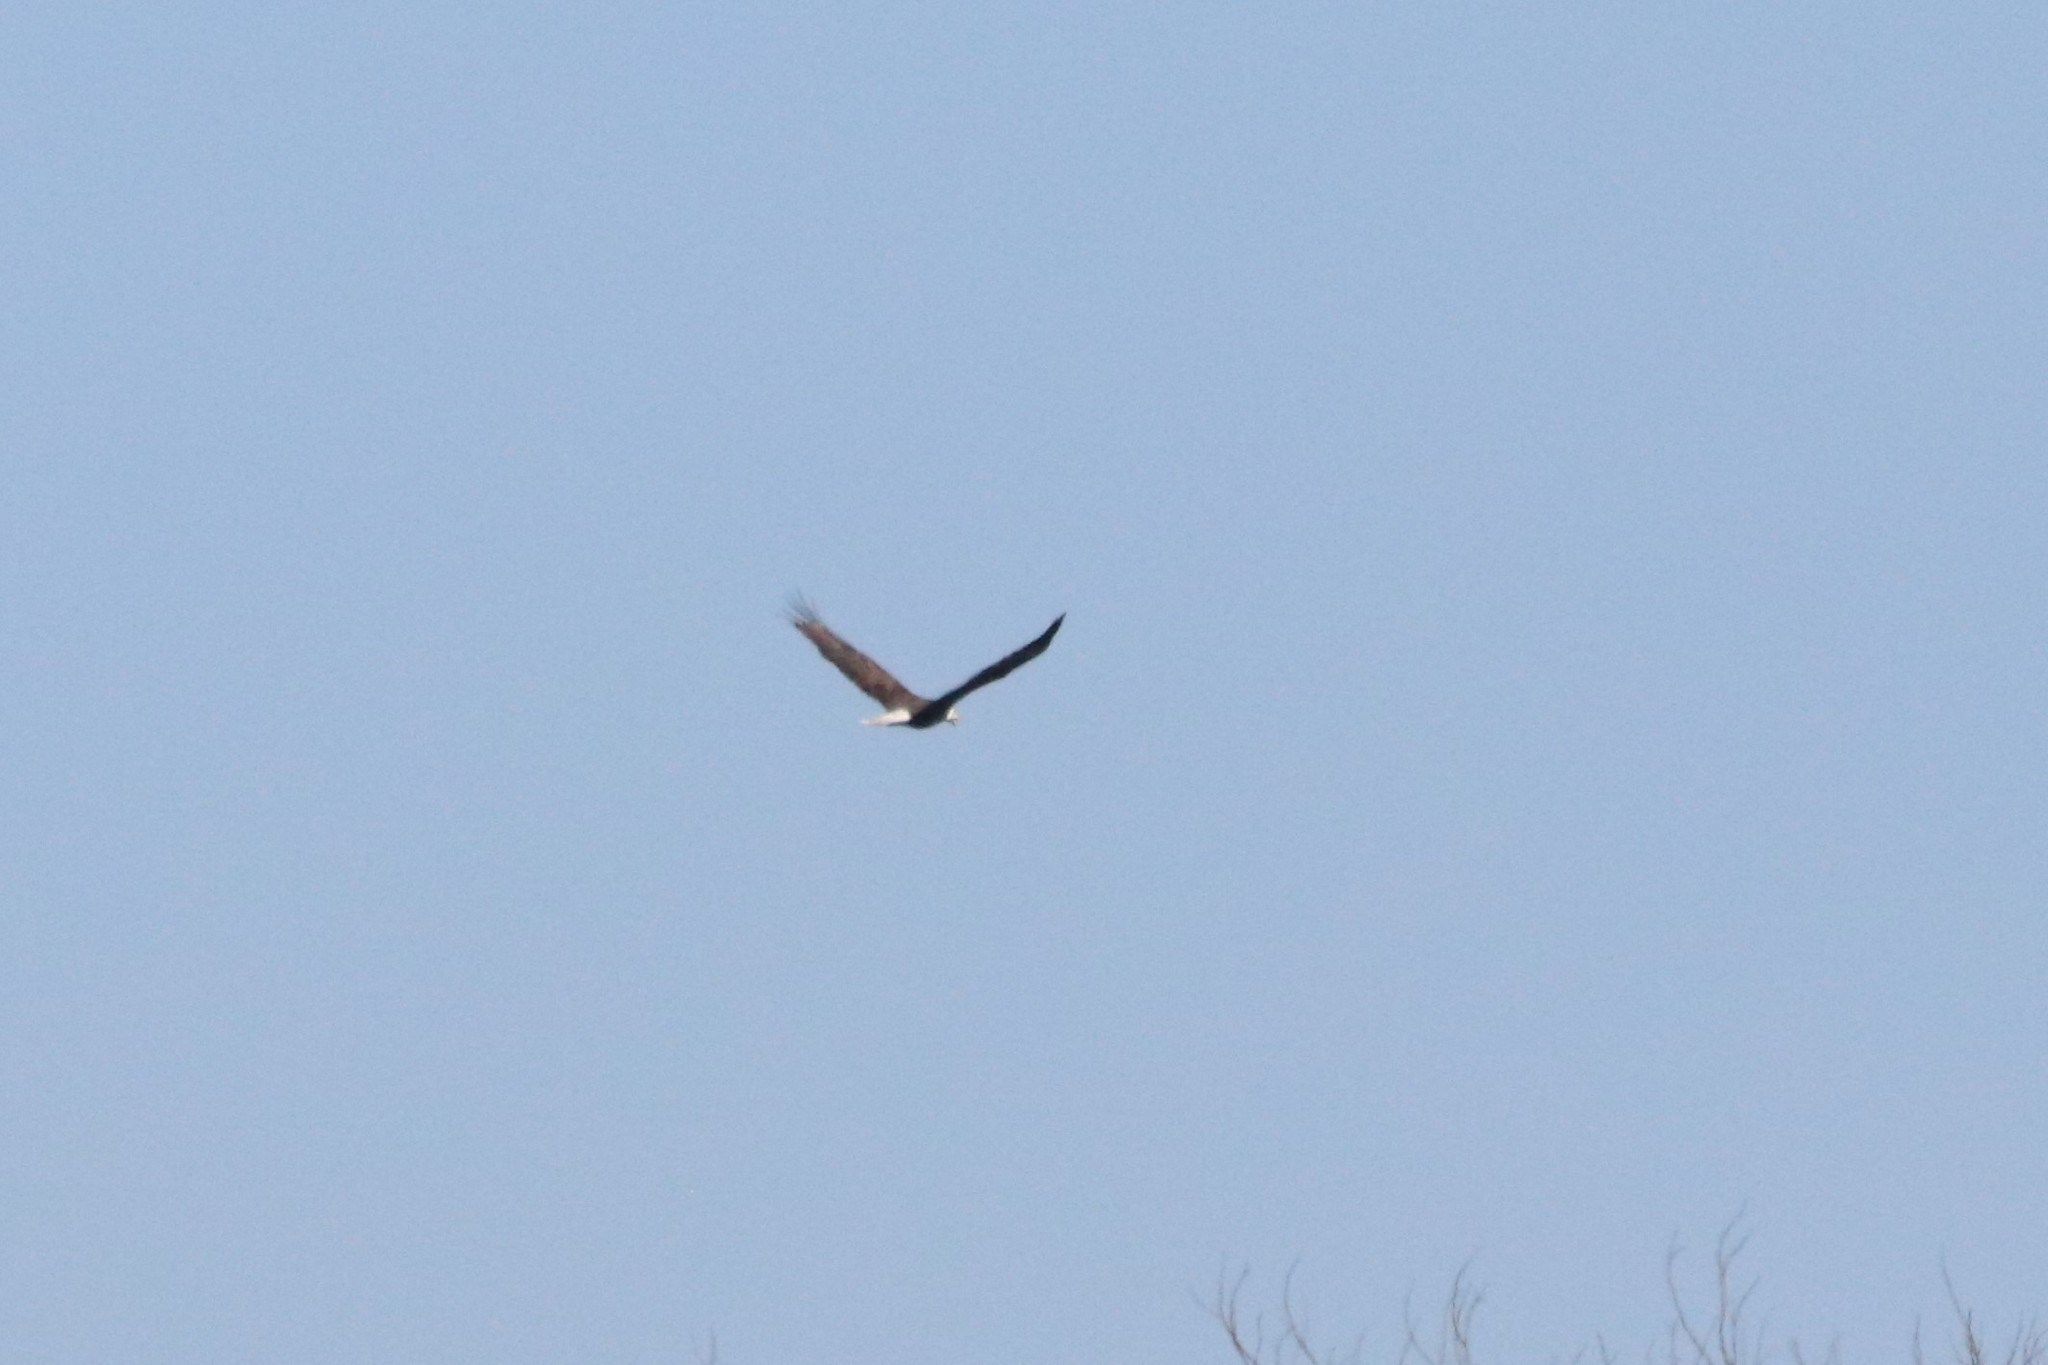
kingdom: Animalia
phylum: Chordata
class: Aves
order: Accipitriformes
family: Accipitridae
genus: Haliaeetus
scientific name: Haliaeetus leucocephalus
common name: Bald eagle
